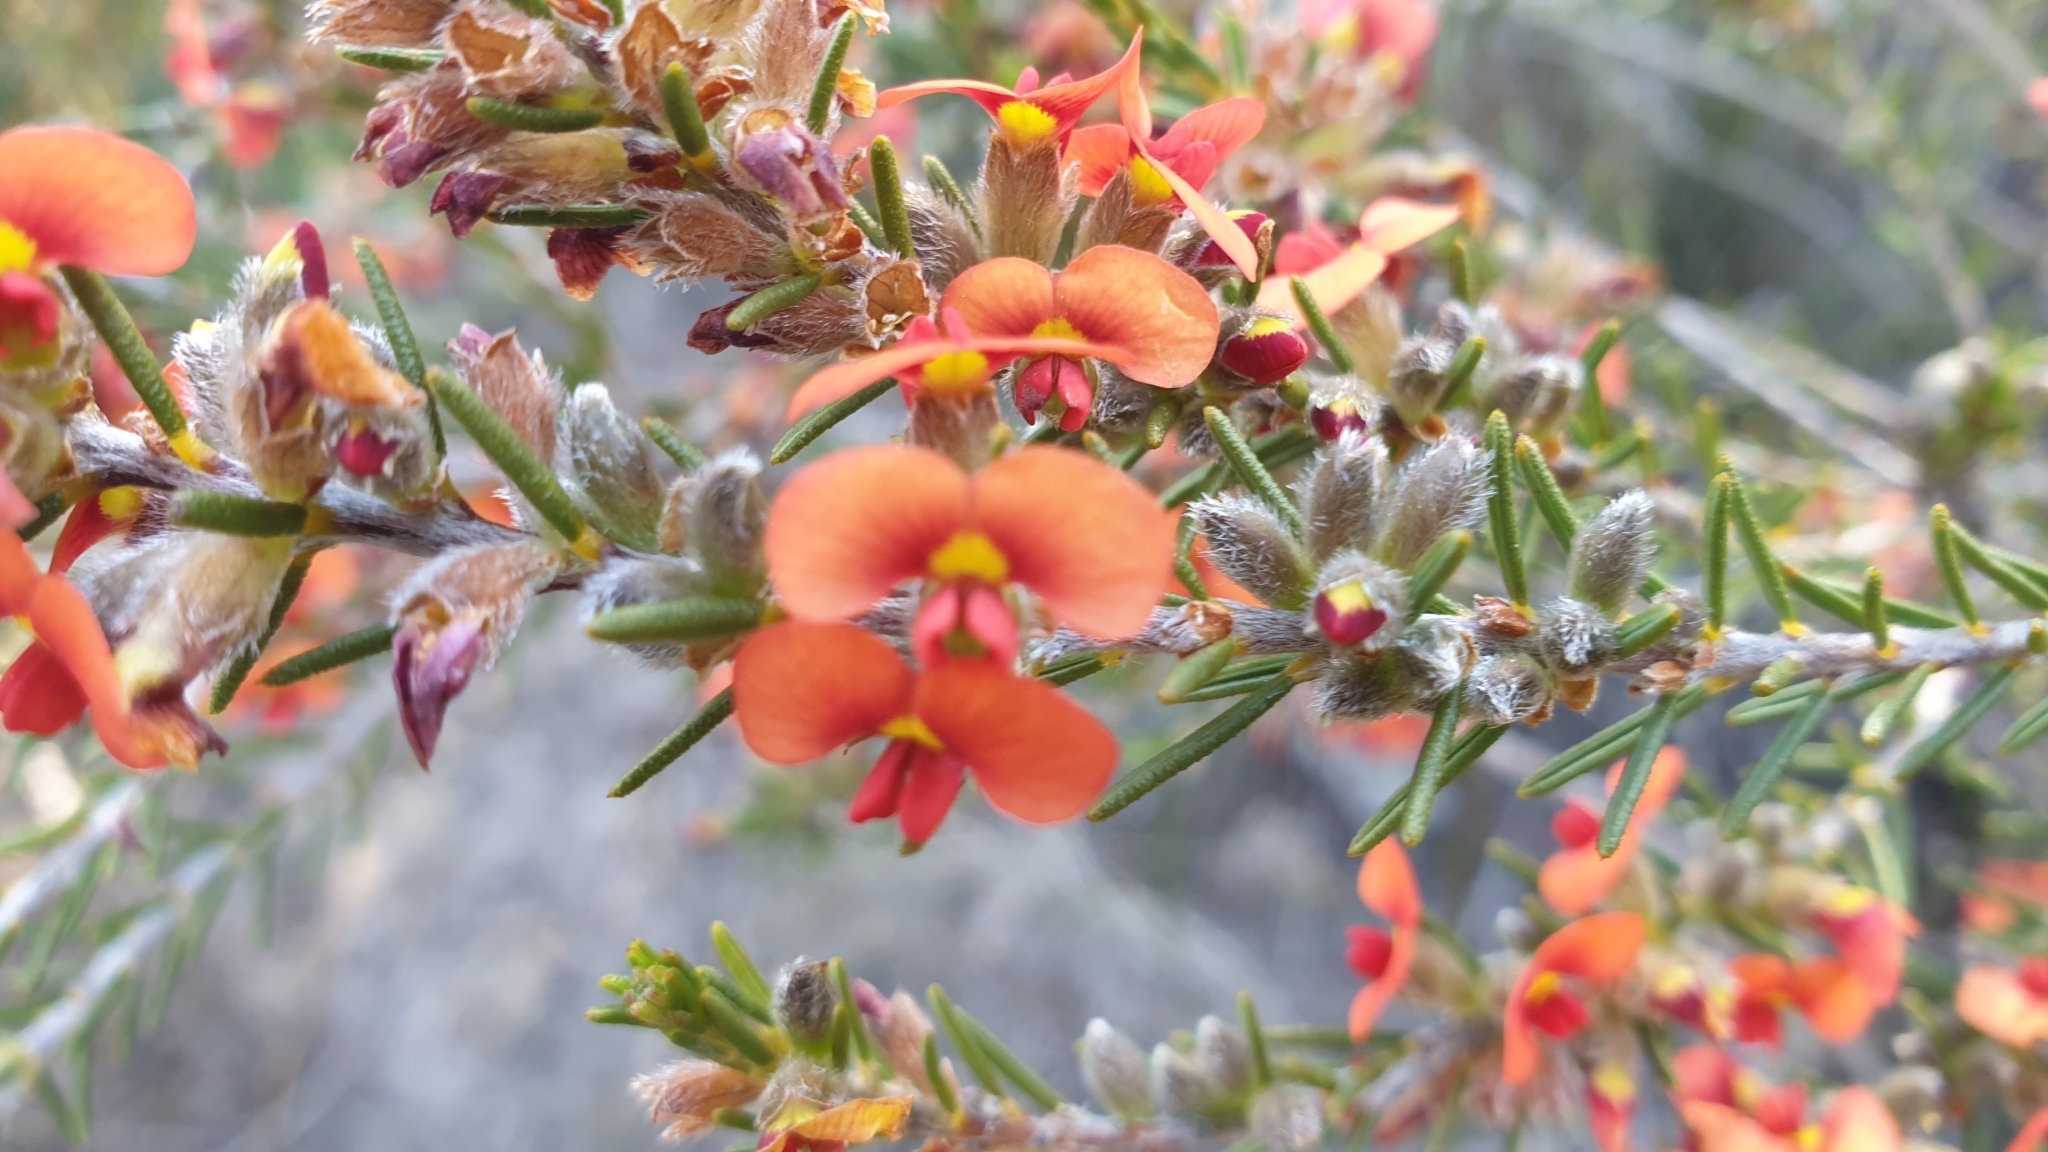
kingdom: Plantae
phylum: Tracheophyta
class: Magnoliopsida
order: Fabales
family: Fabaceae
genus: Dillwynia
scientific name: Dillwynia sericea
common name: Showy parrot-pea
